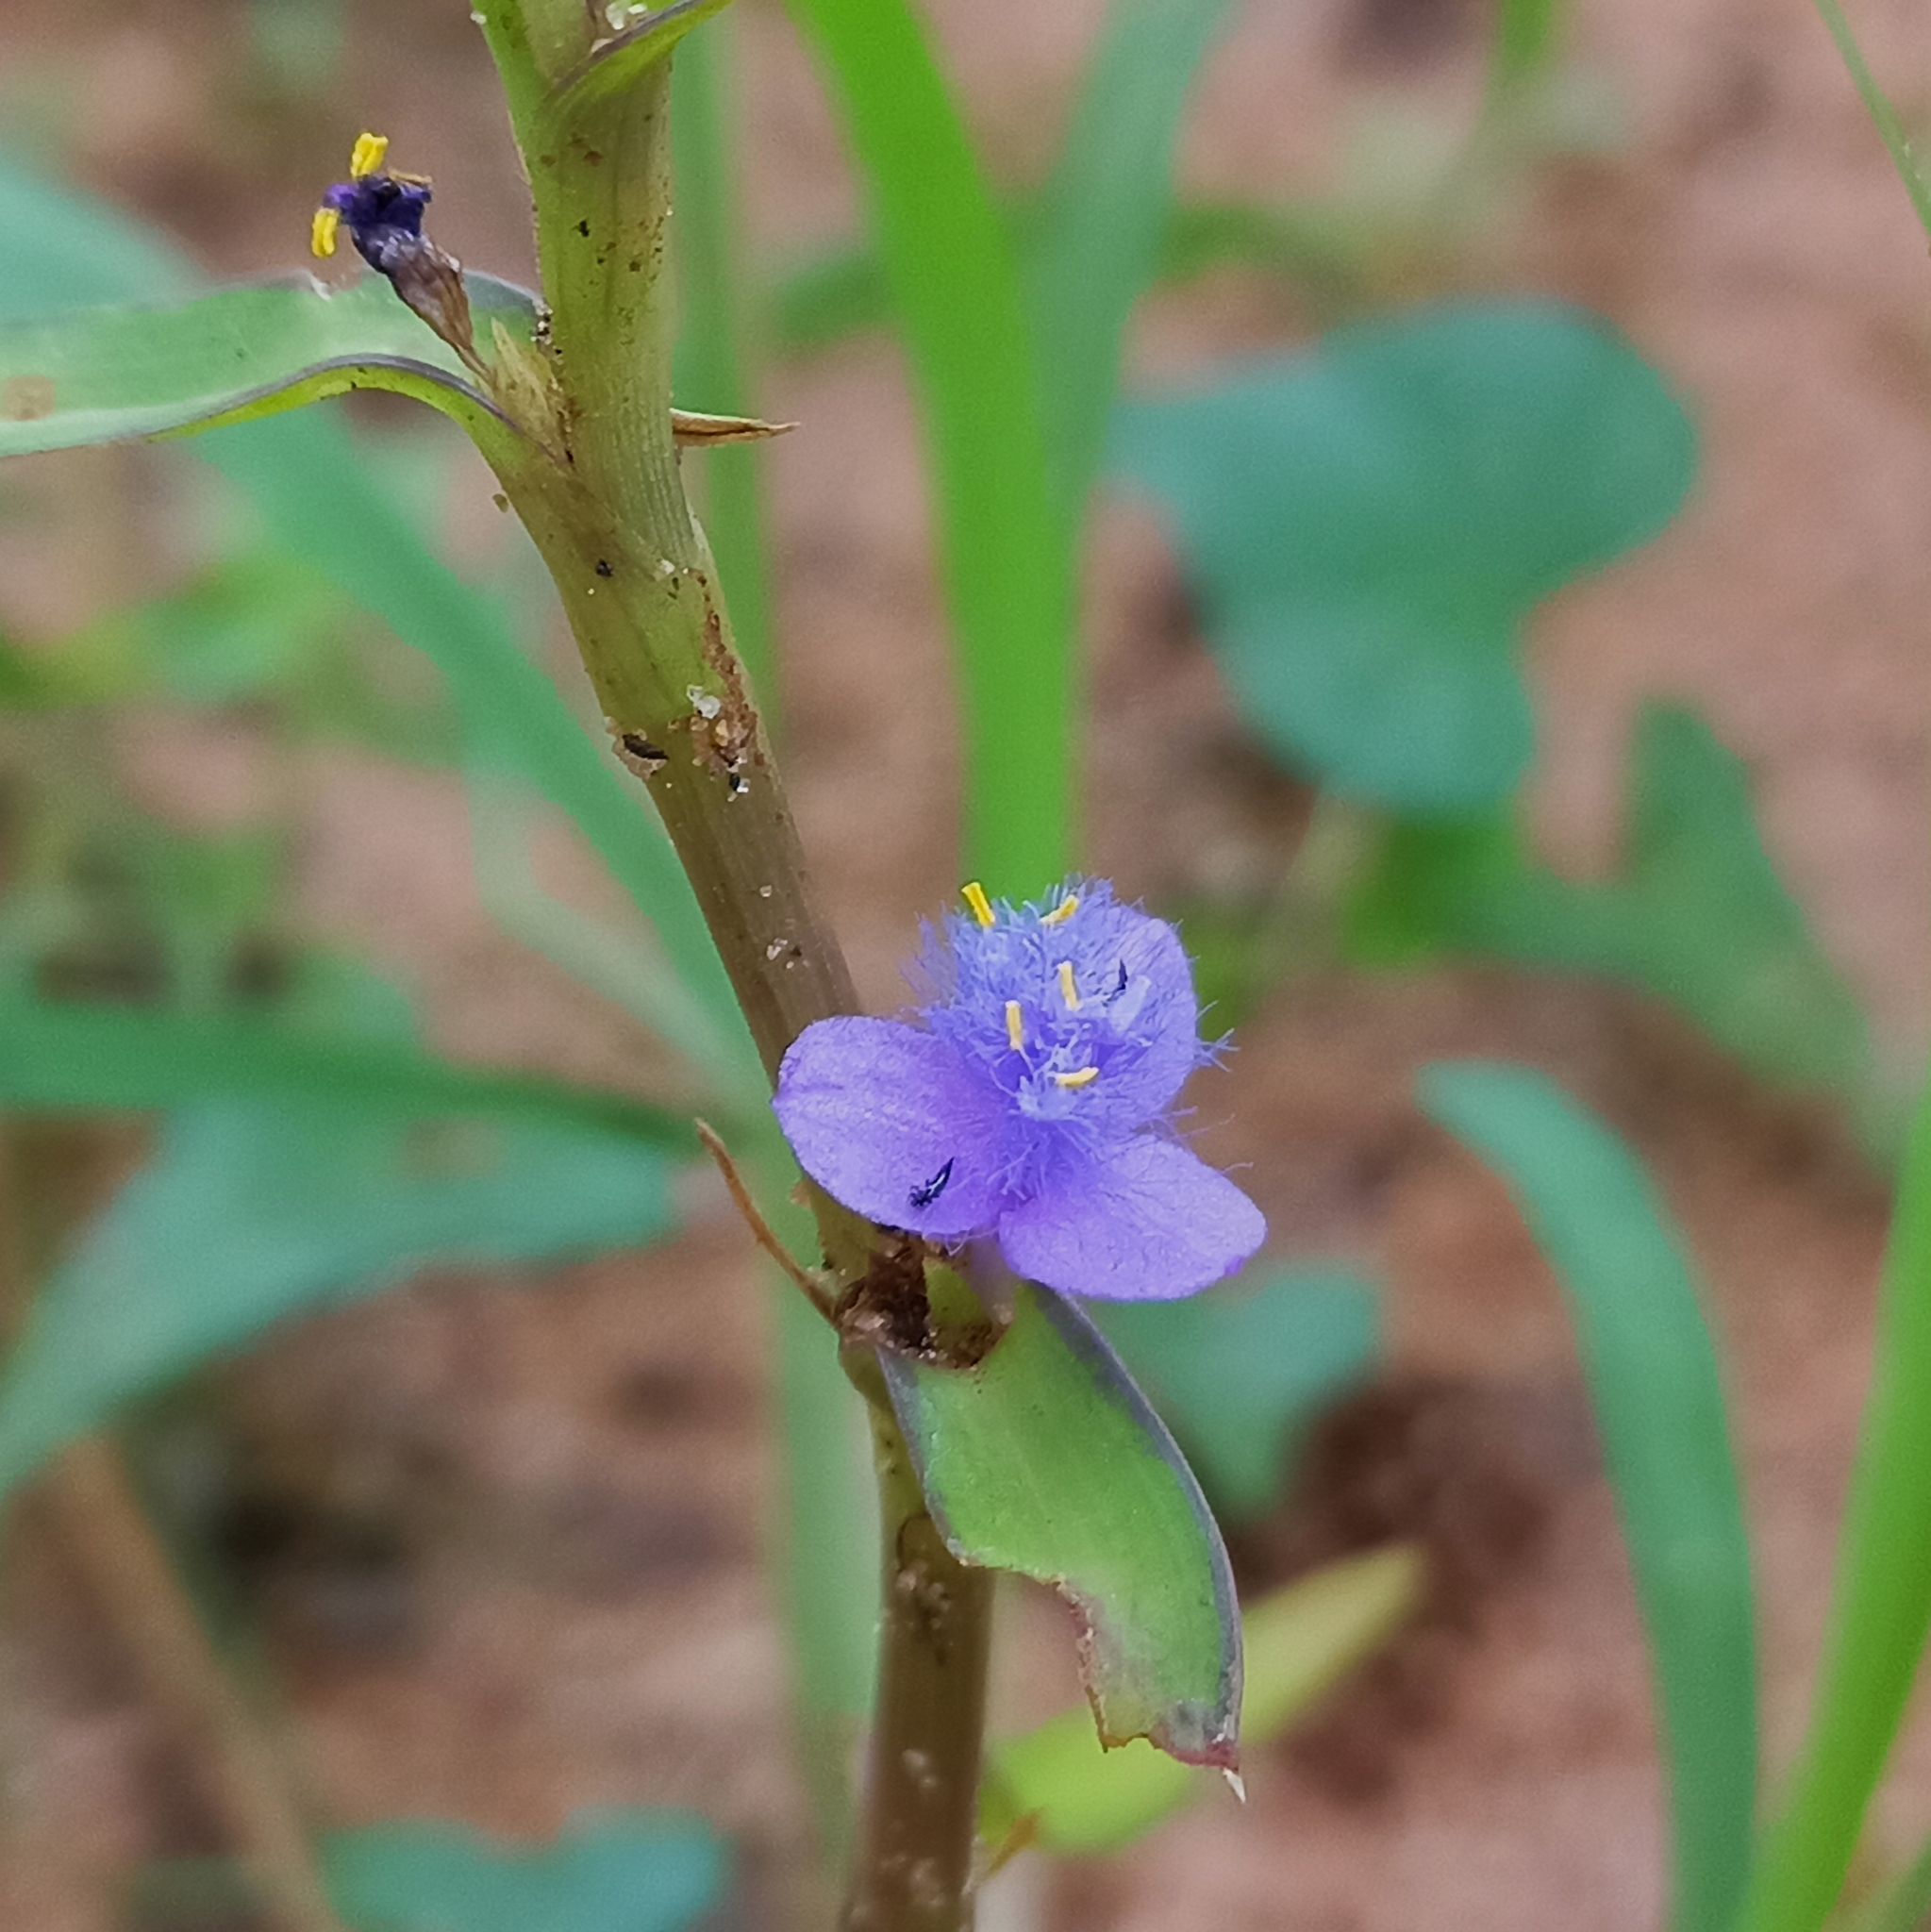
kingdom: Plantae
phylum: Tracheophyta
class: Liliopsida
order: Commelinales
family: Commelinaceae
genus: Cyanotis
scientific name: Cyanotis axillaris
